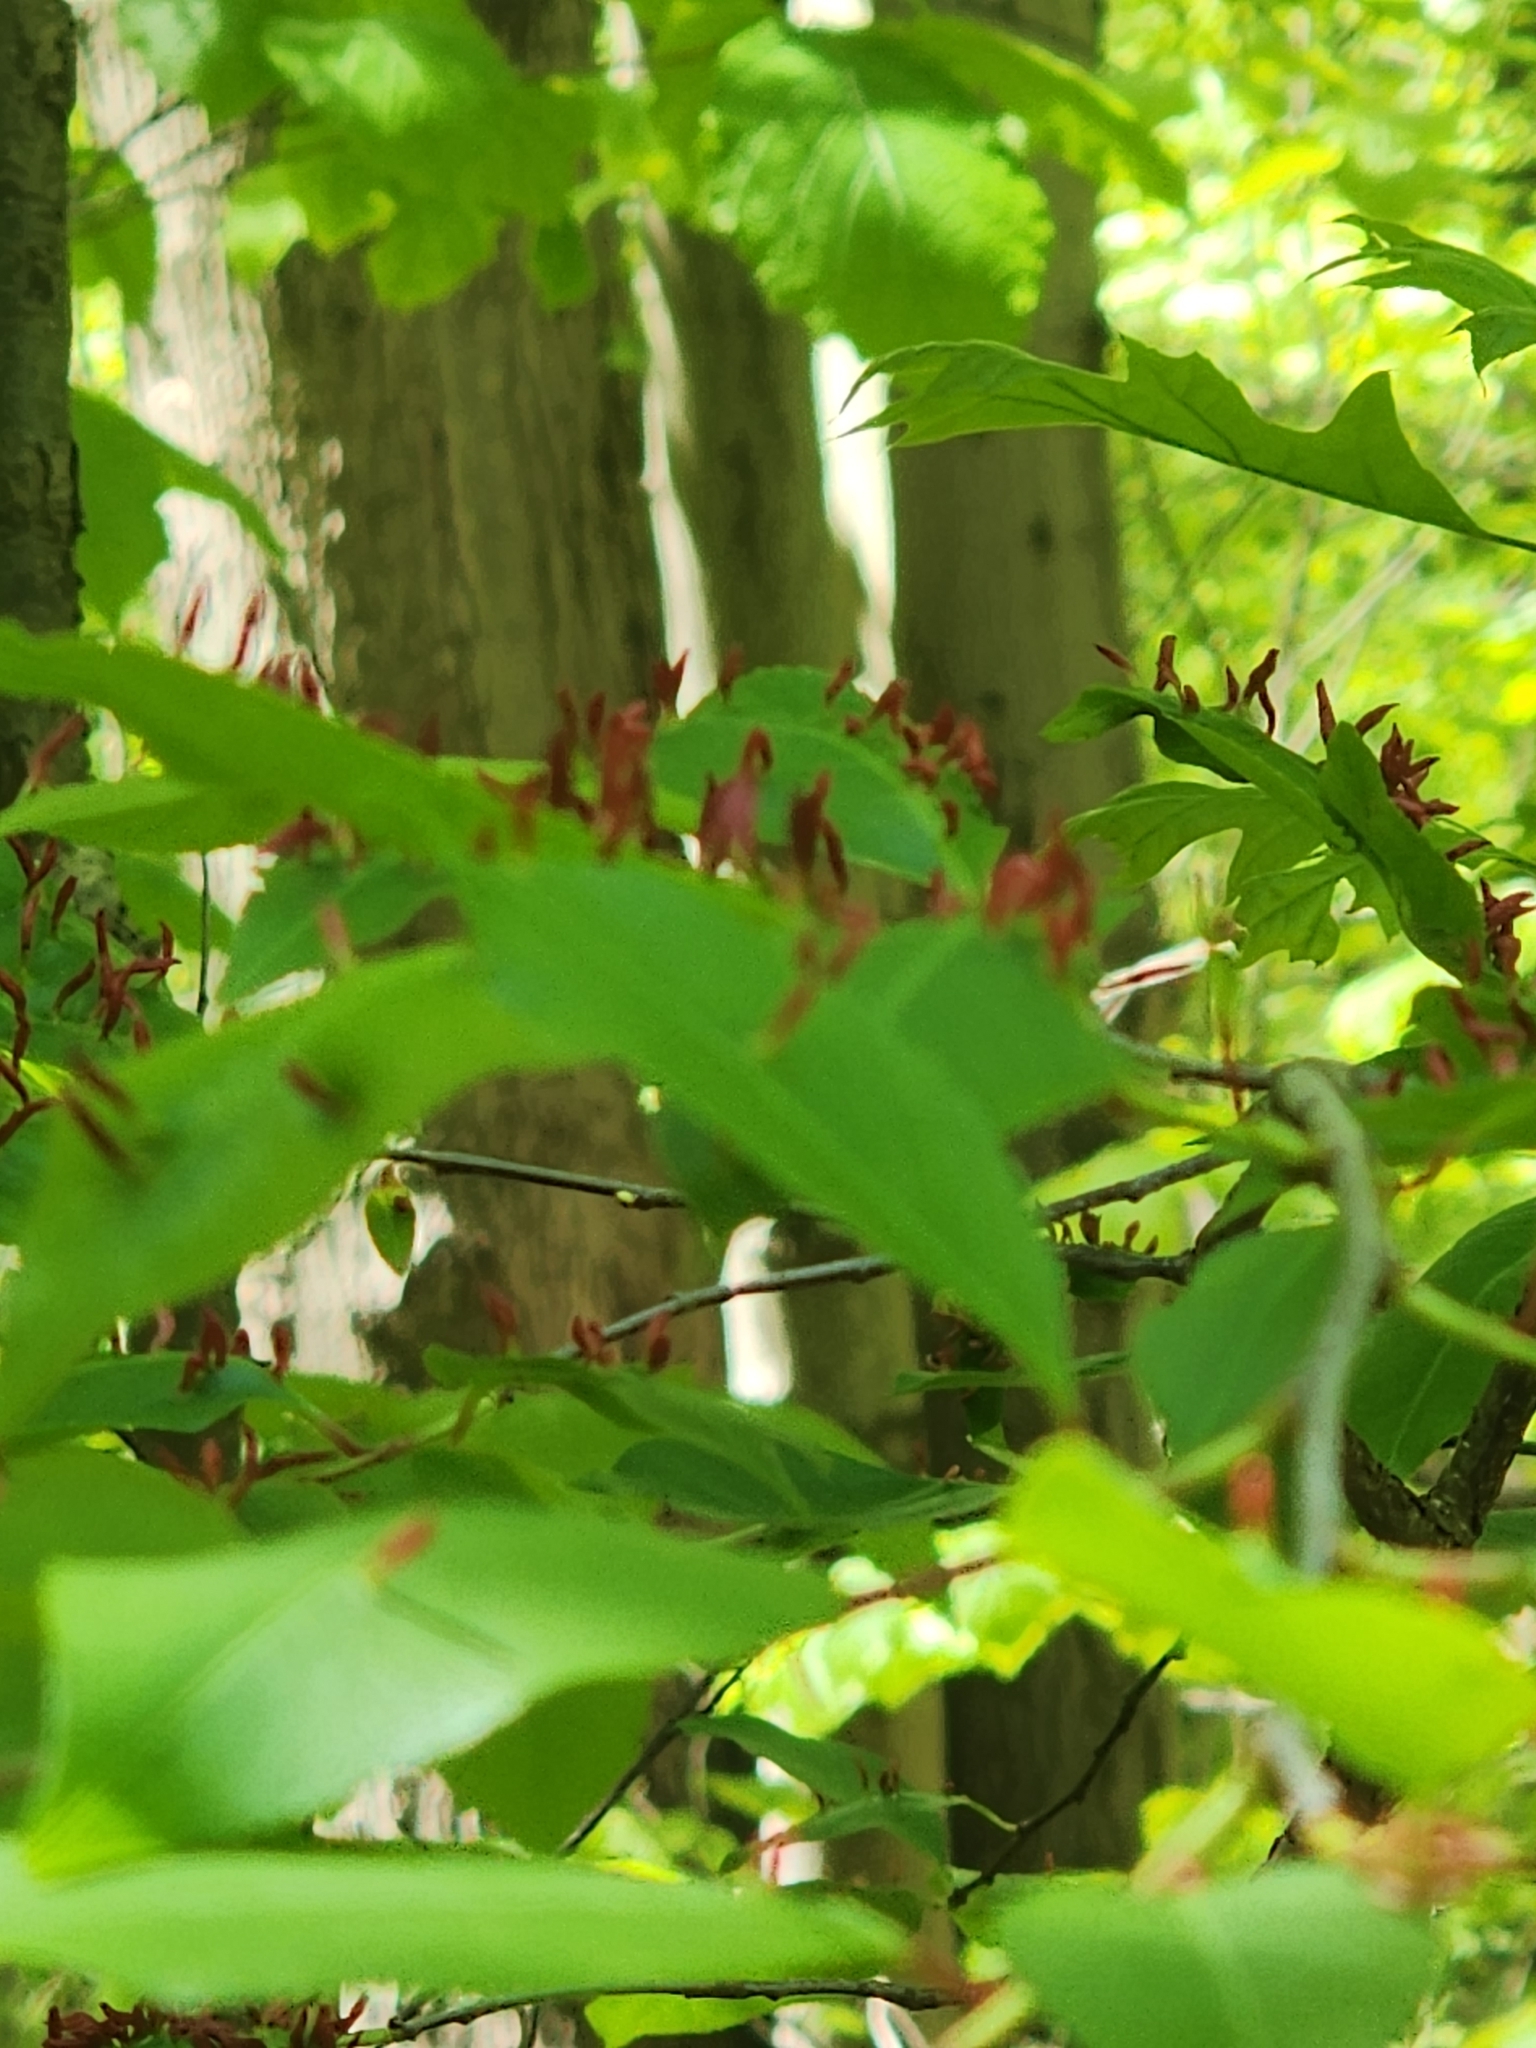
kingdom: Animalia
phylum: Arthropoda
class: Arachnida
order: Trombidiformes
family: Eriophyidae
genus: Eriophyes
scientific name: Eriophyes
